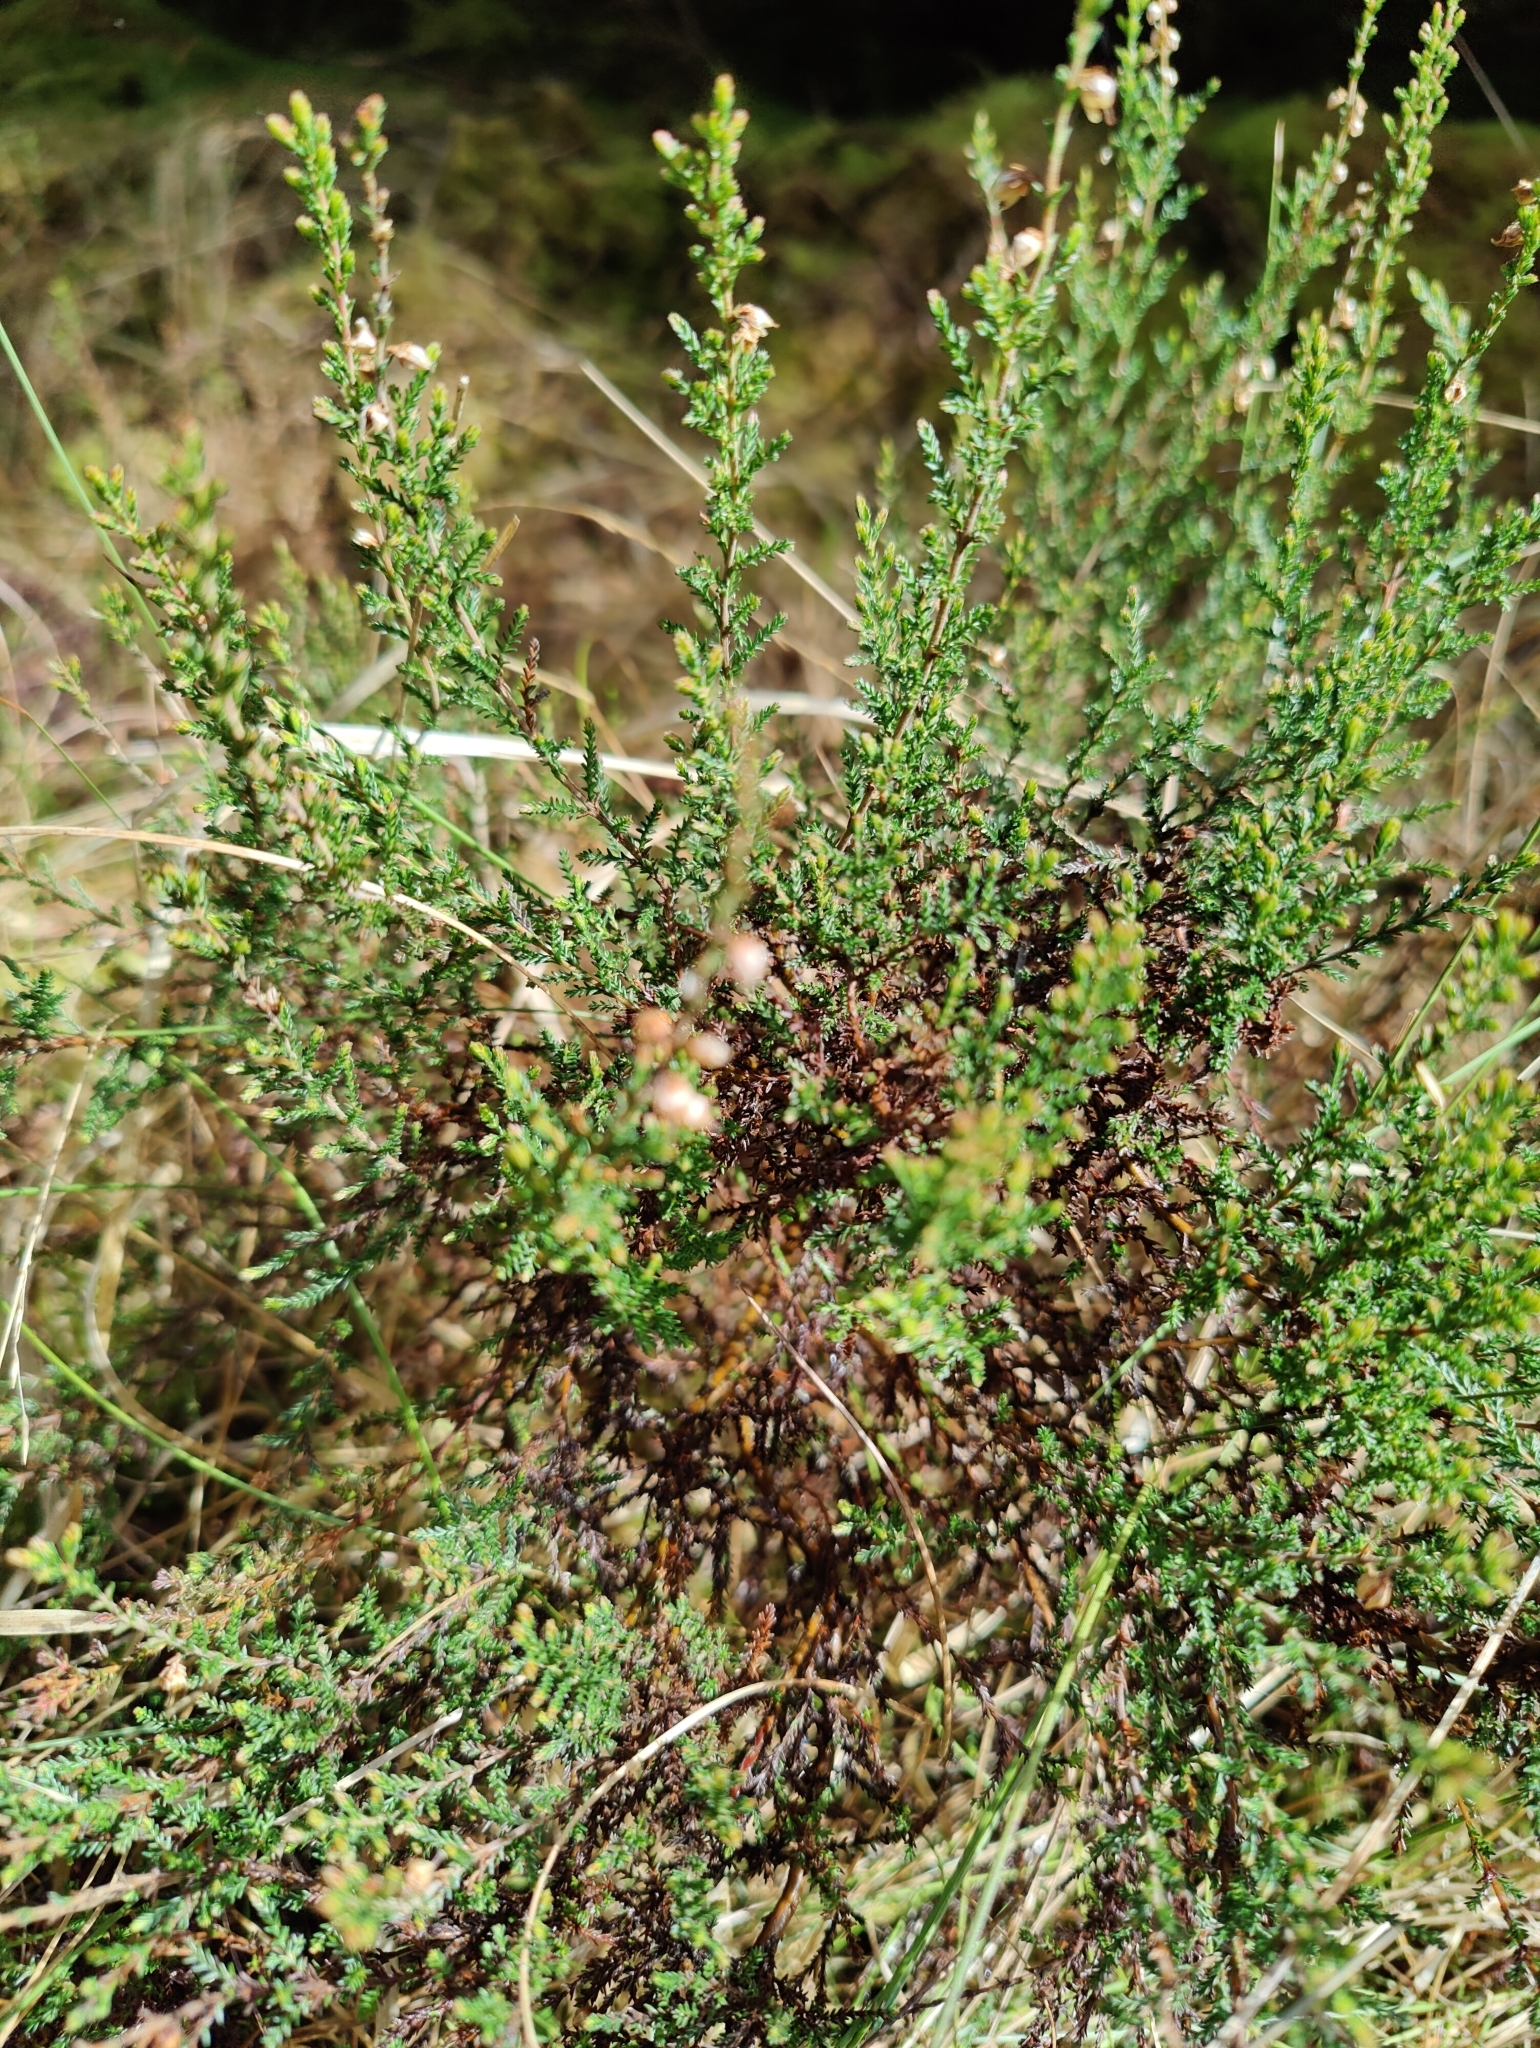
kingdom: Plantae
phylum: Tracheophyta
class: Magnoliopsida
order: Ericales
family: Ericaceae
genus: Calluna
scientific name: Calluna vulgaris
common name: Heather
